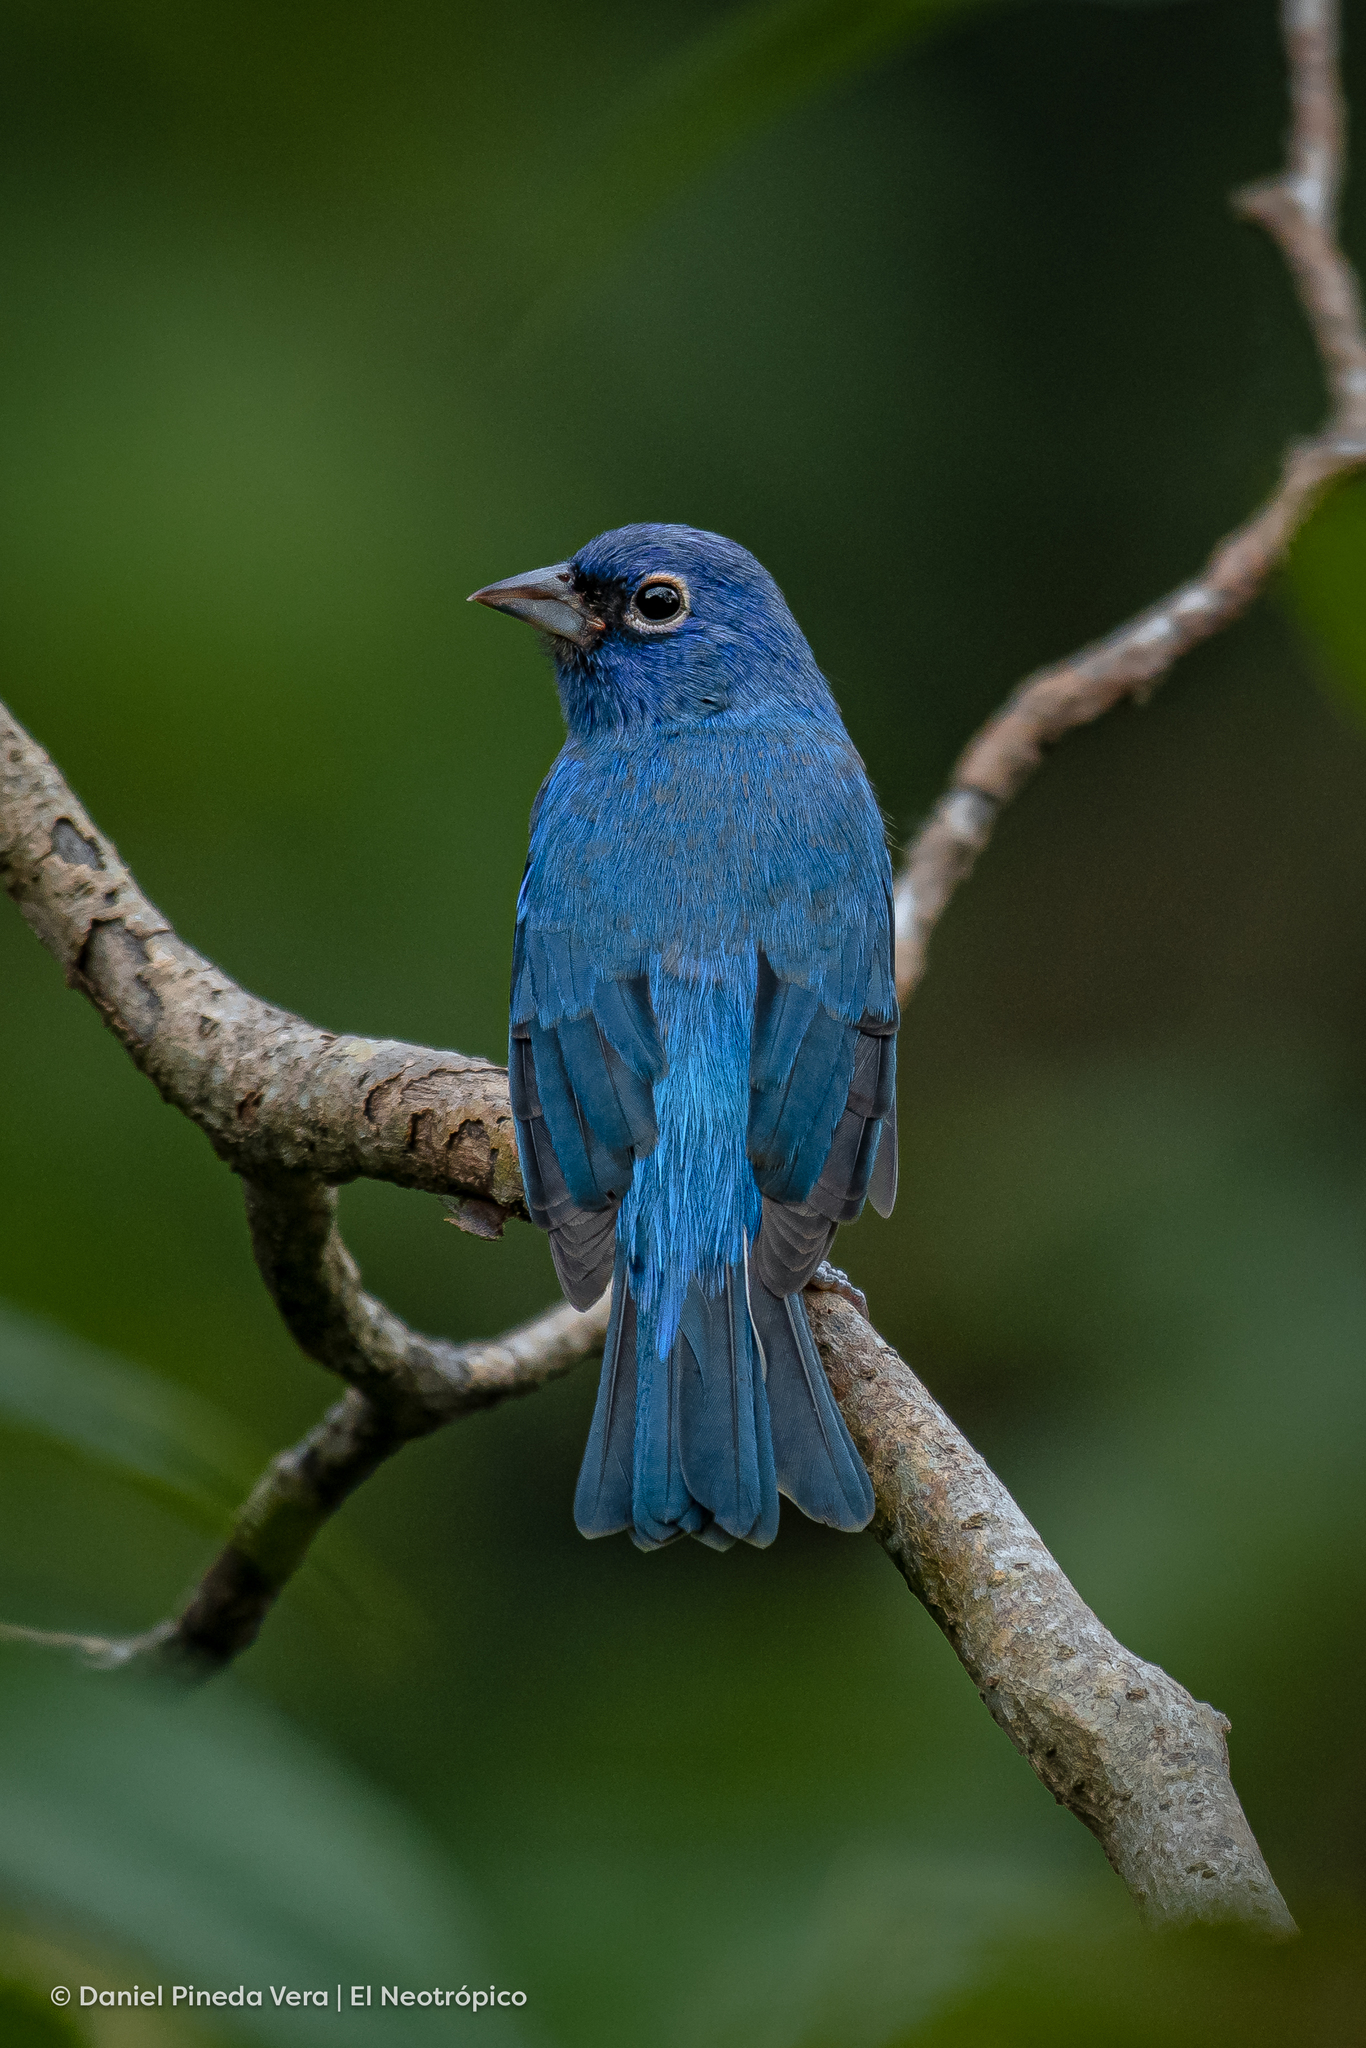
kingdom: Animalia
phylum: Chordata
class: Aves
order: Passeriformes
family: Cardinalidae
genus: Passerina
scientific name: Passerina rositae
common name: Rose-bellied bunting
